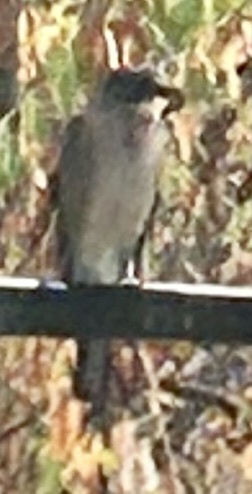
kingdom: Animalia
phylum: Chordata
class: Aves
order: Passeriformes
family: Corvidae
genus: Garrulus
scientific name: Garrulus glandarius
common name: Eurasian jay
